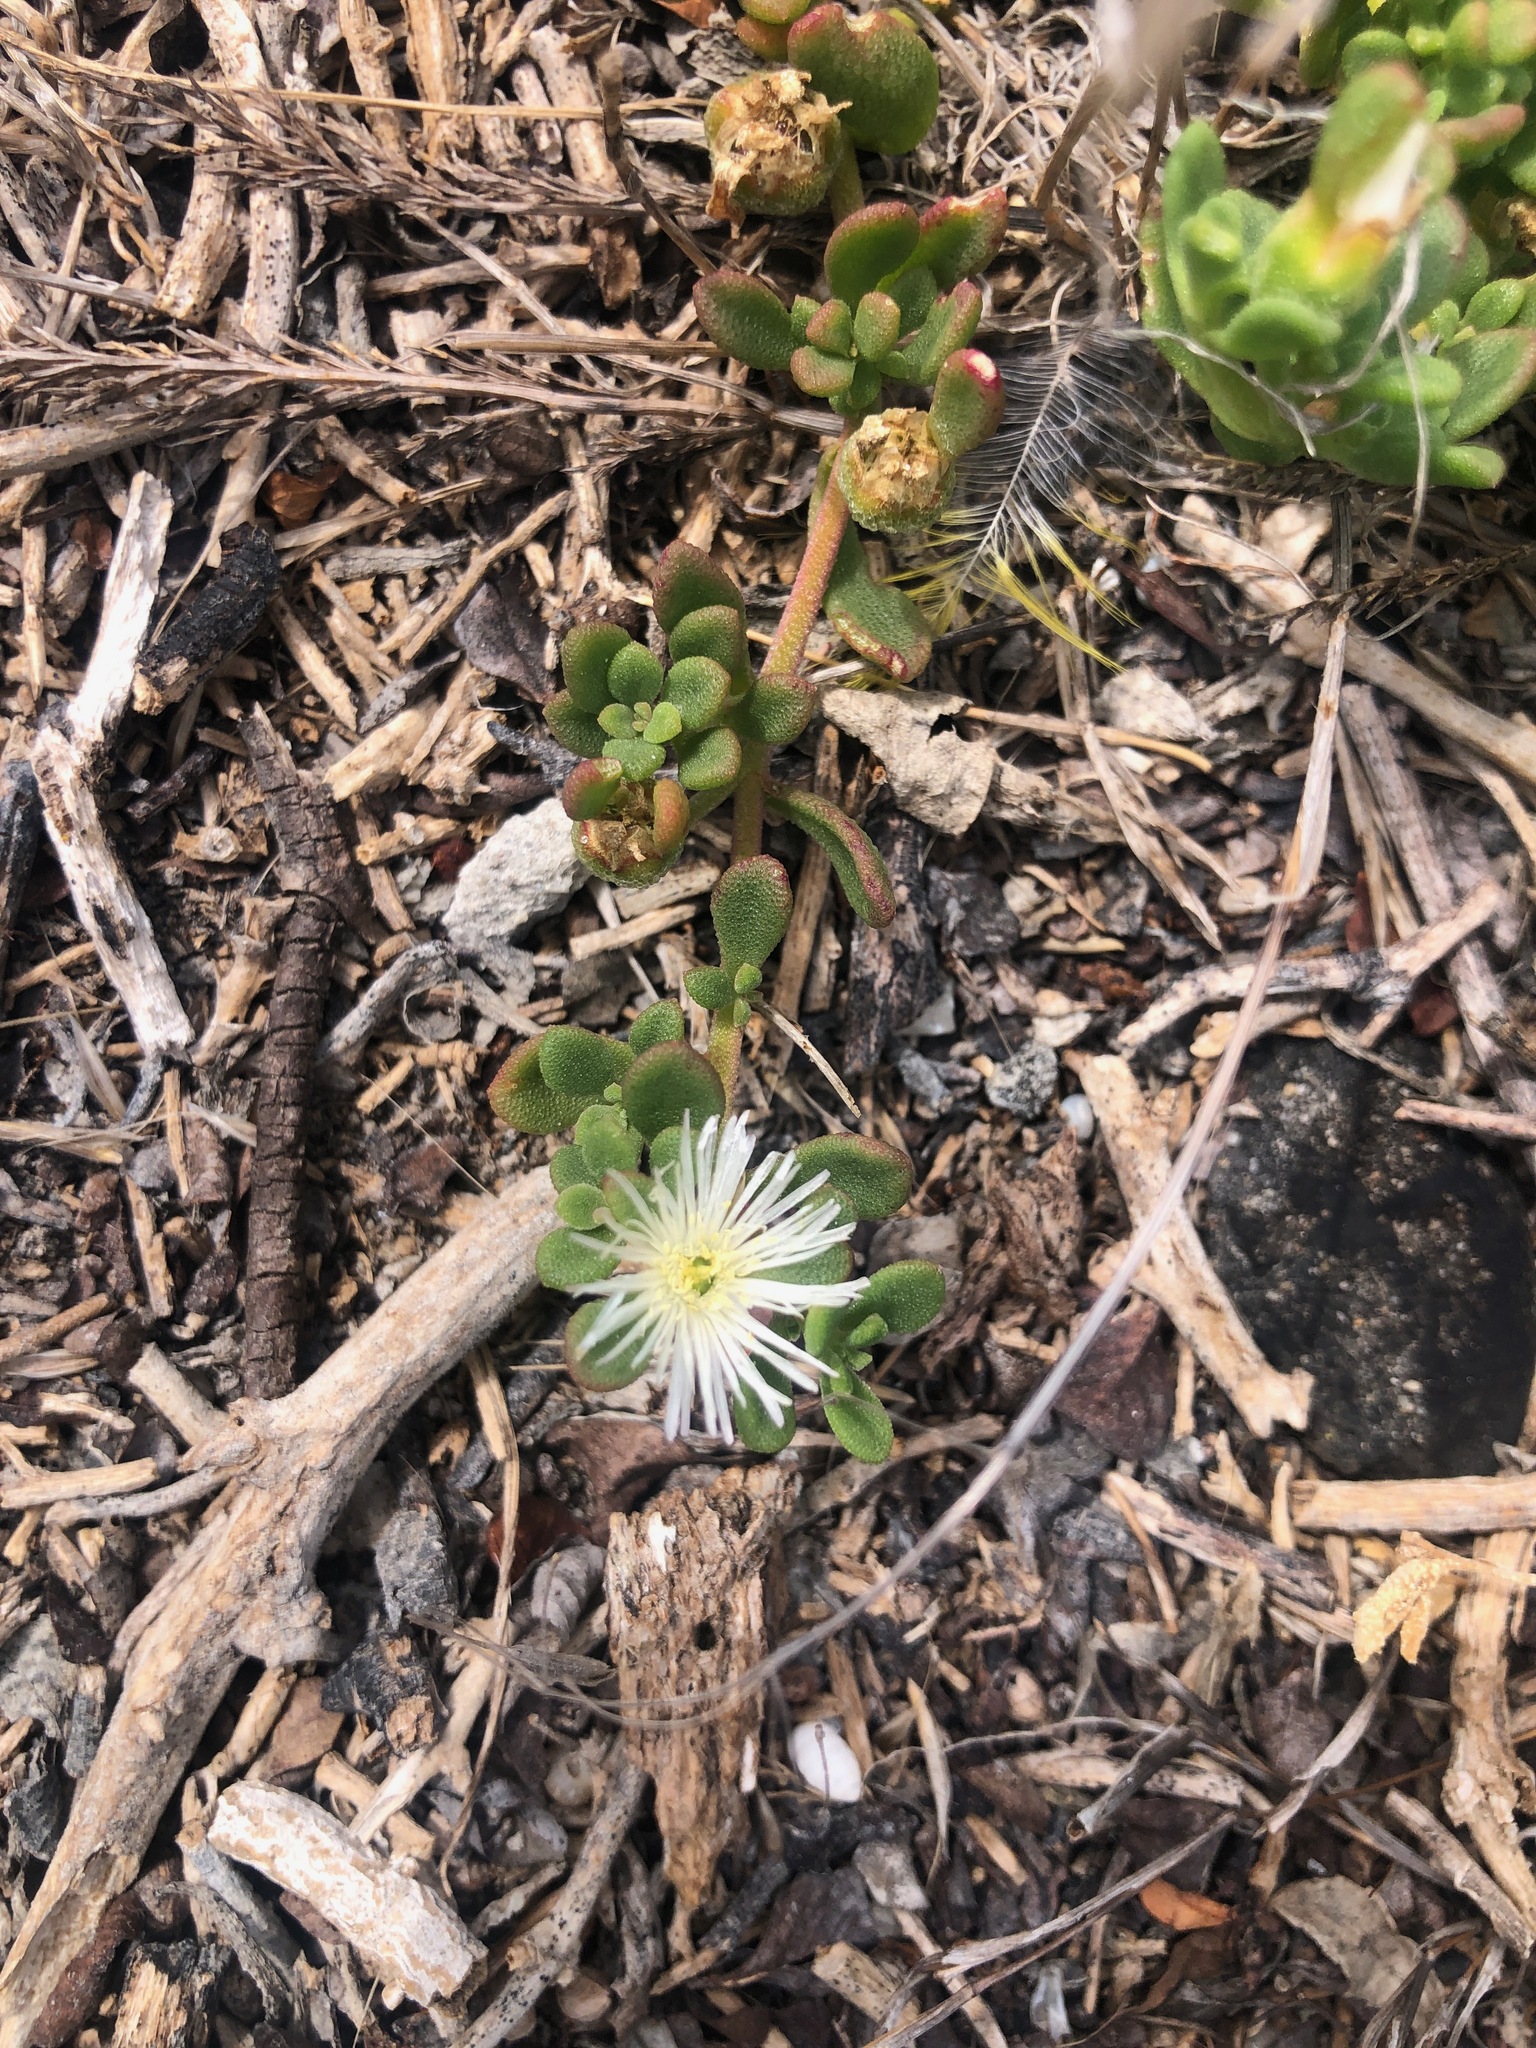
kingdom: Plantae
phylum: Tracheophyta
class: Magnoliopsida
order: Caryophyllales
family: Aizoaceae
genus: Mesembryanthemum
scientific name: Mesembryanthemum paulum
